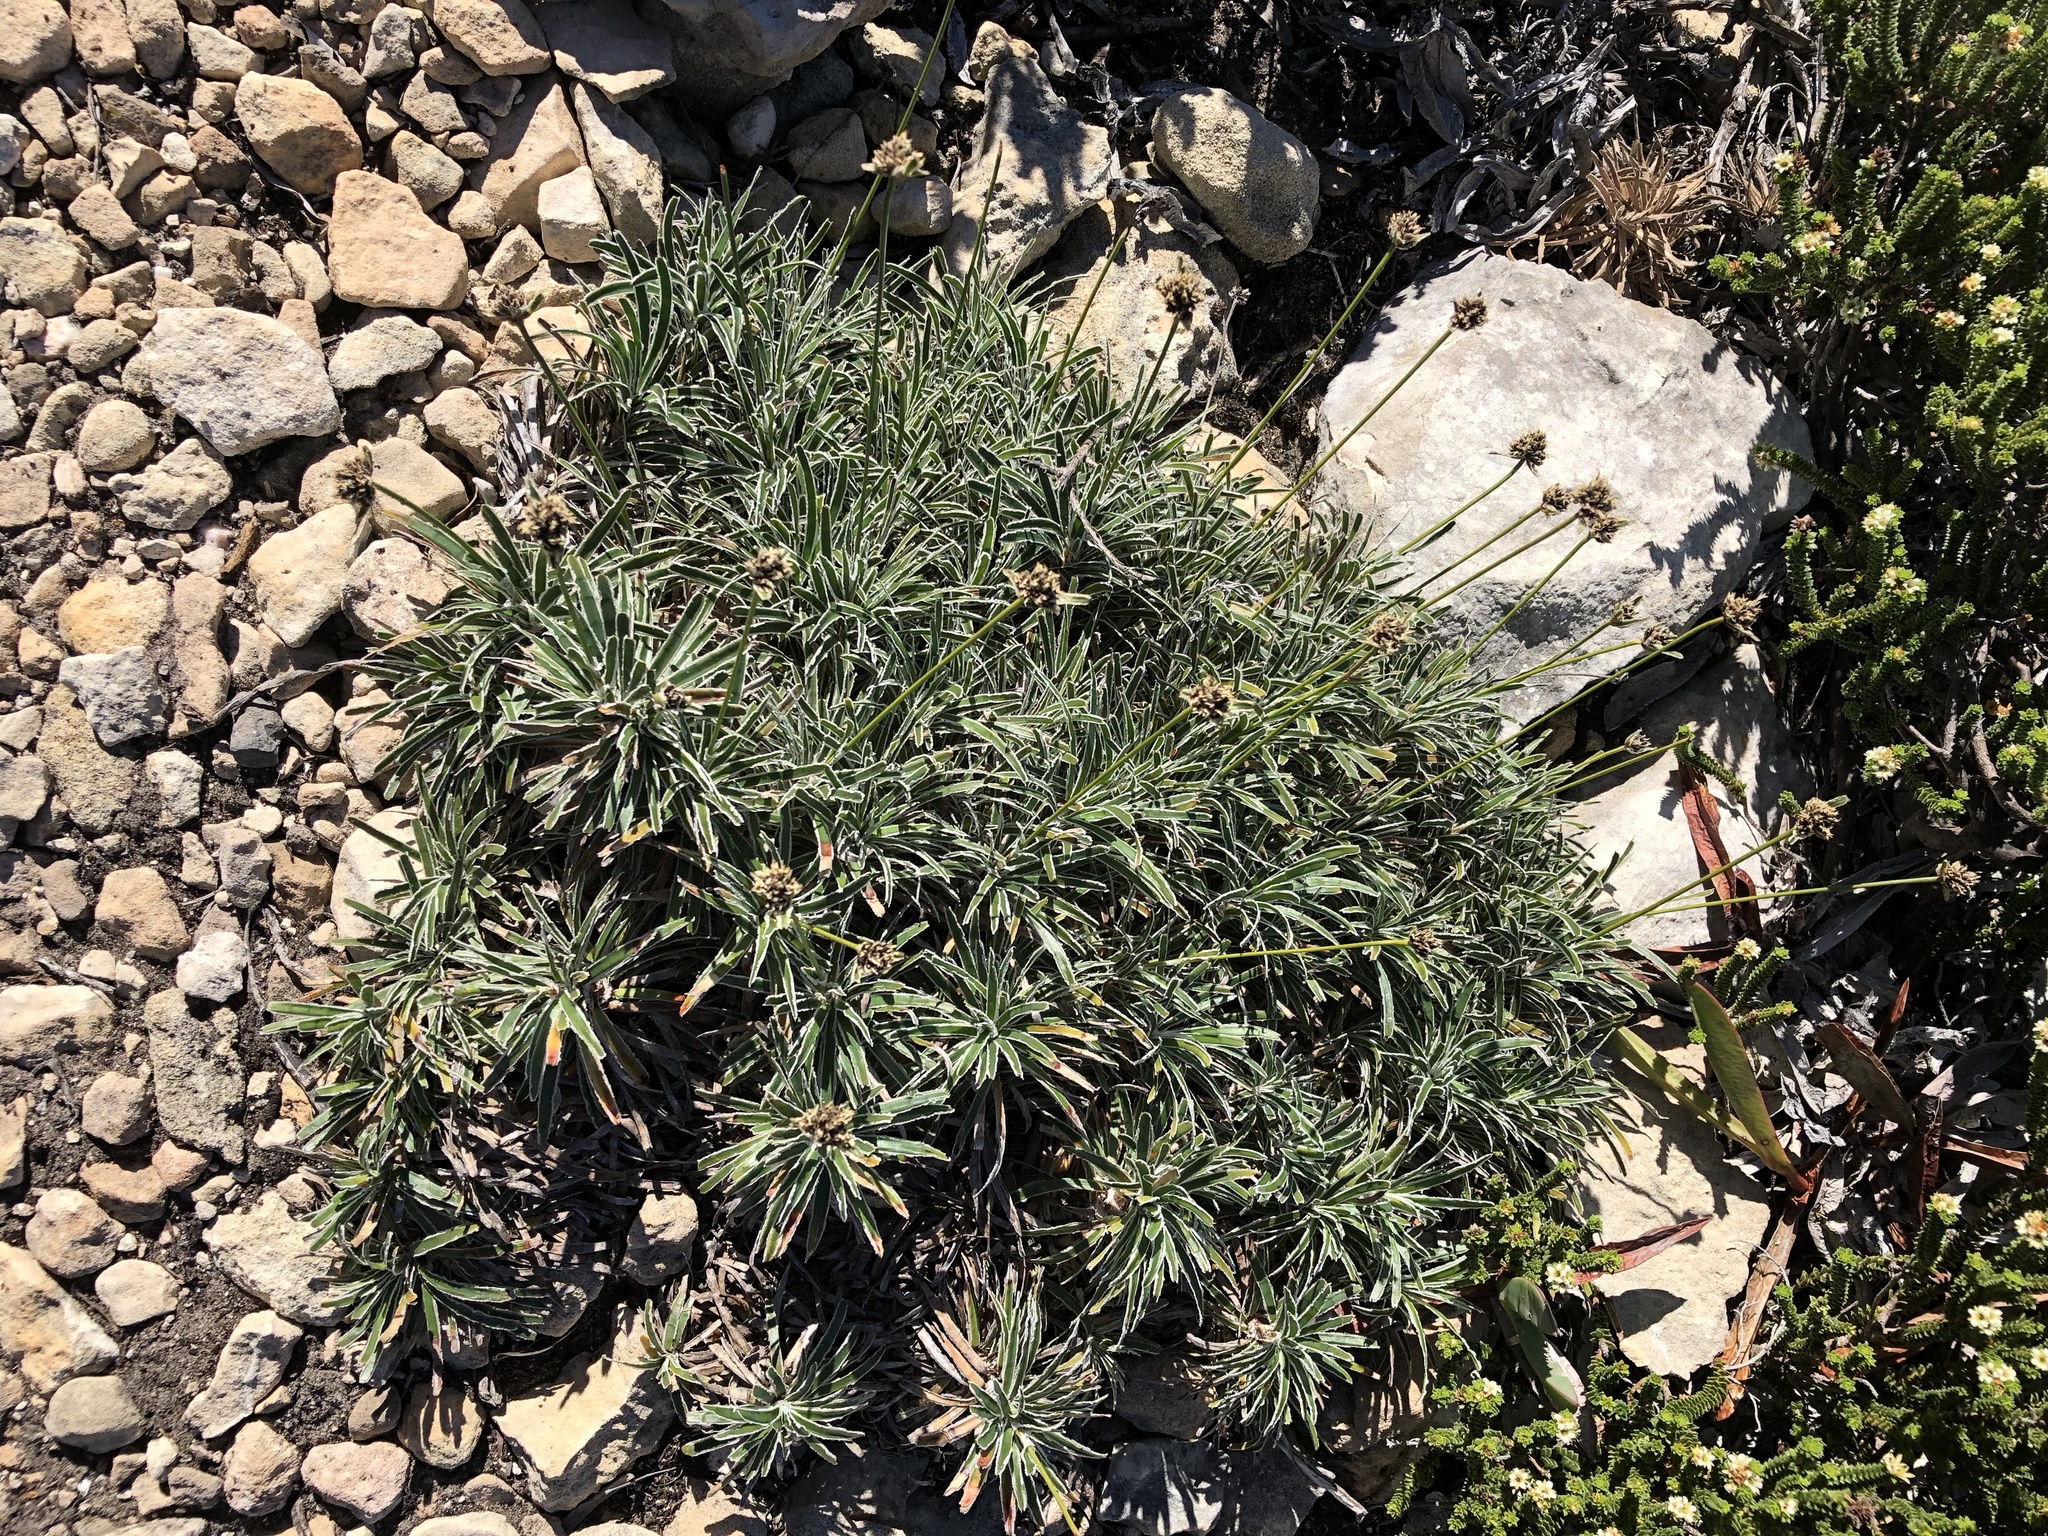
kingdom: Plantae
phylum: Tracheophyta
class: Liliopsida
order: Poales
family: Cyperaceae
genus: Ficinia
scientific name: Ficinia truncata
